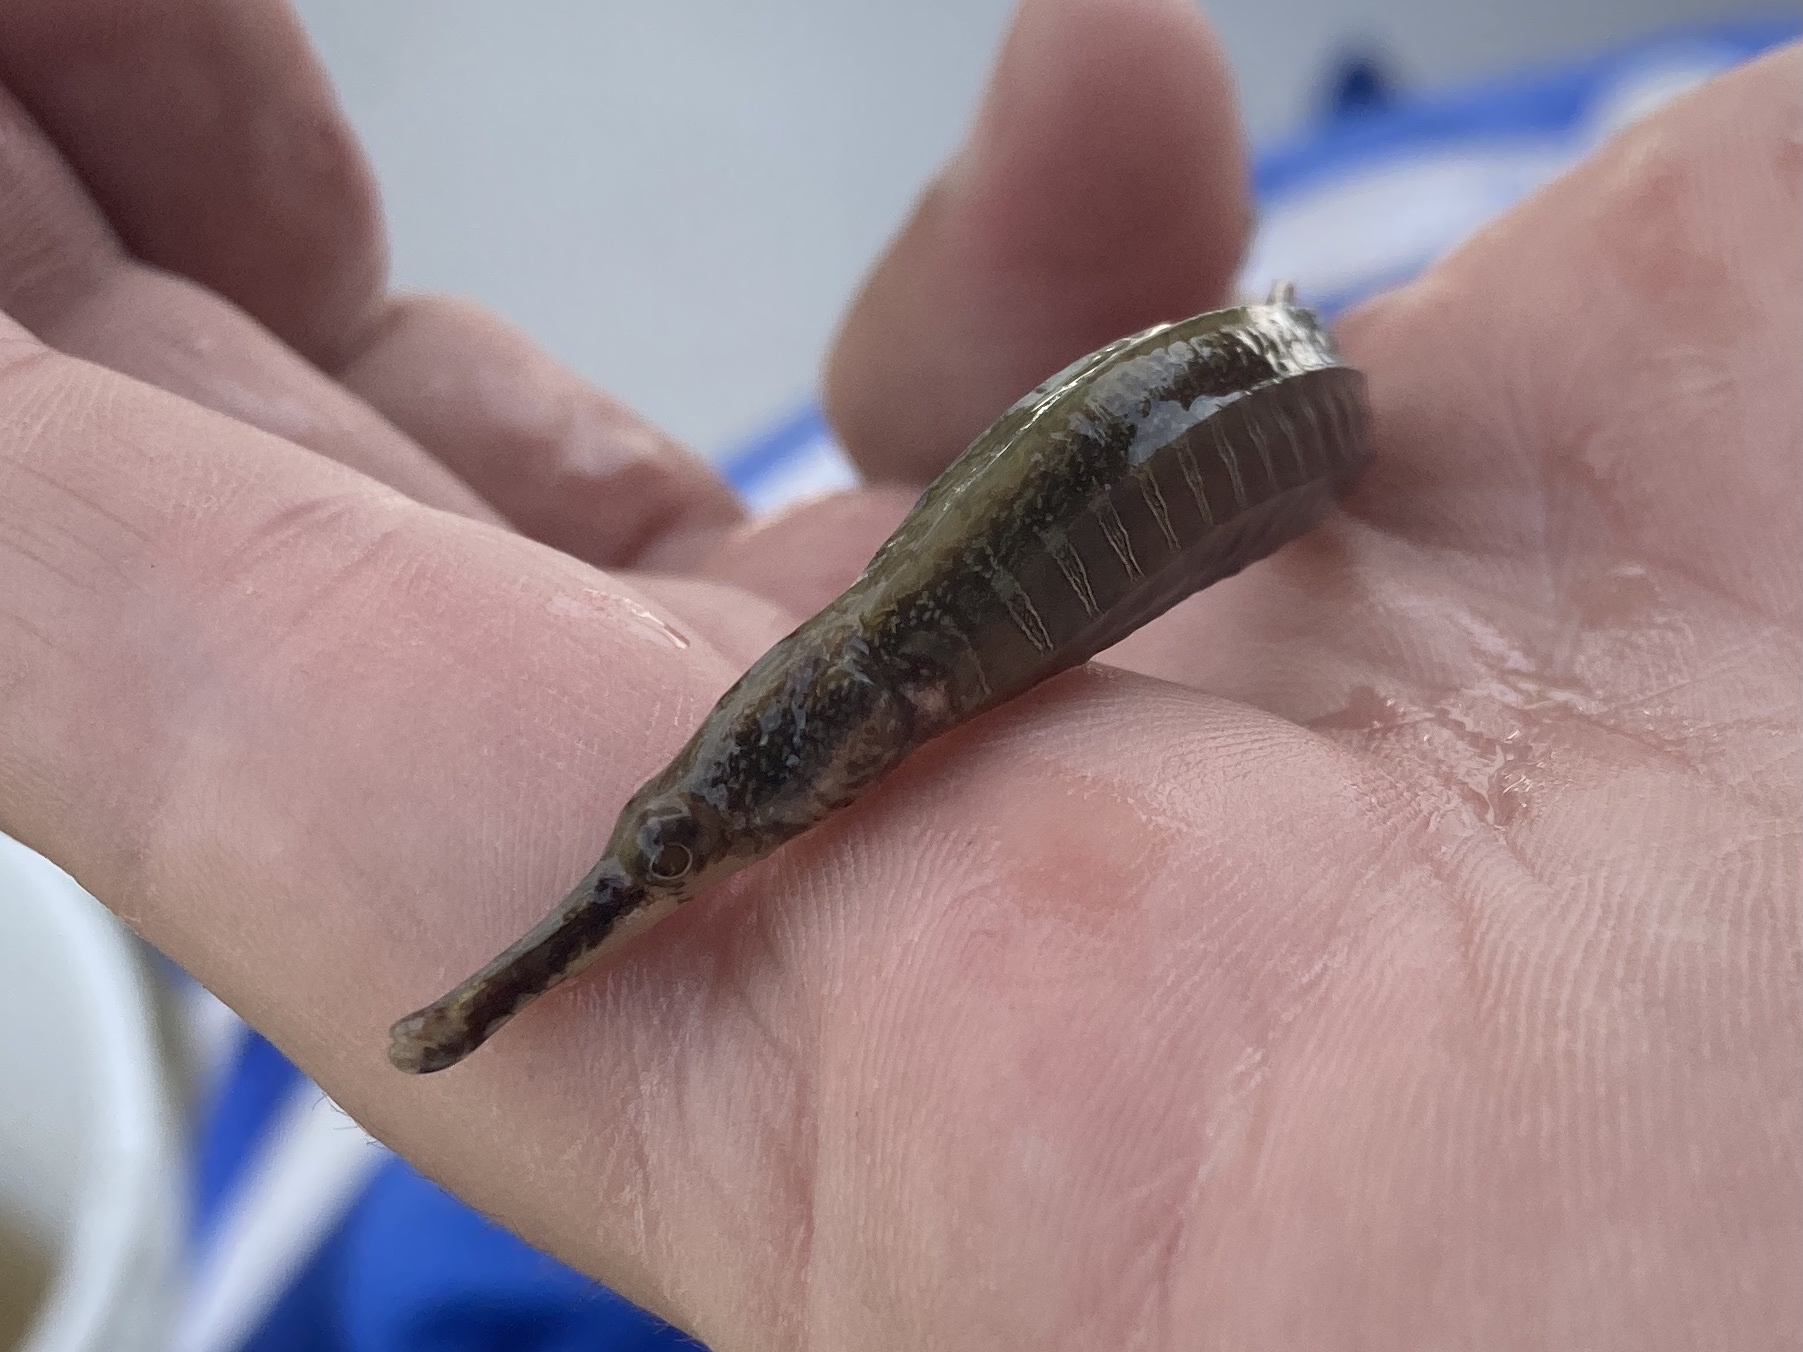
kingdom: Animalia
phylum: Chordata
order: Syngnathiformes
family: Syngnathidae
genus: Syngnathus
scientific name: Syngnathus scovelli
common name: American gulf pipefish
